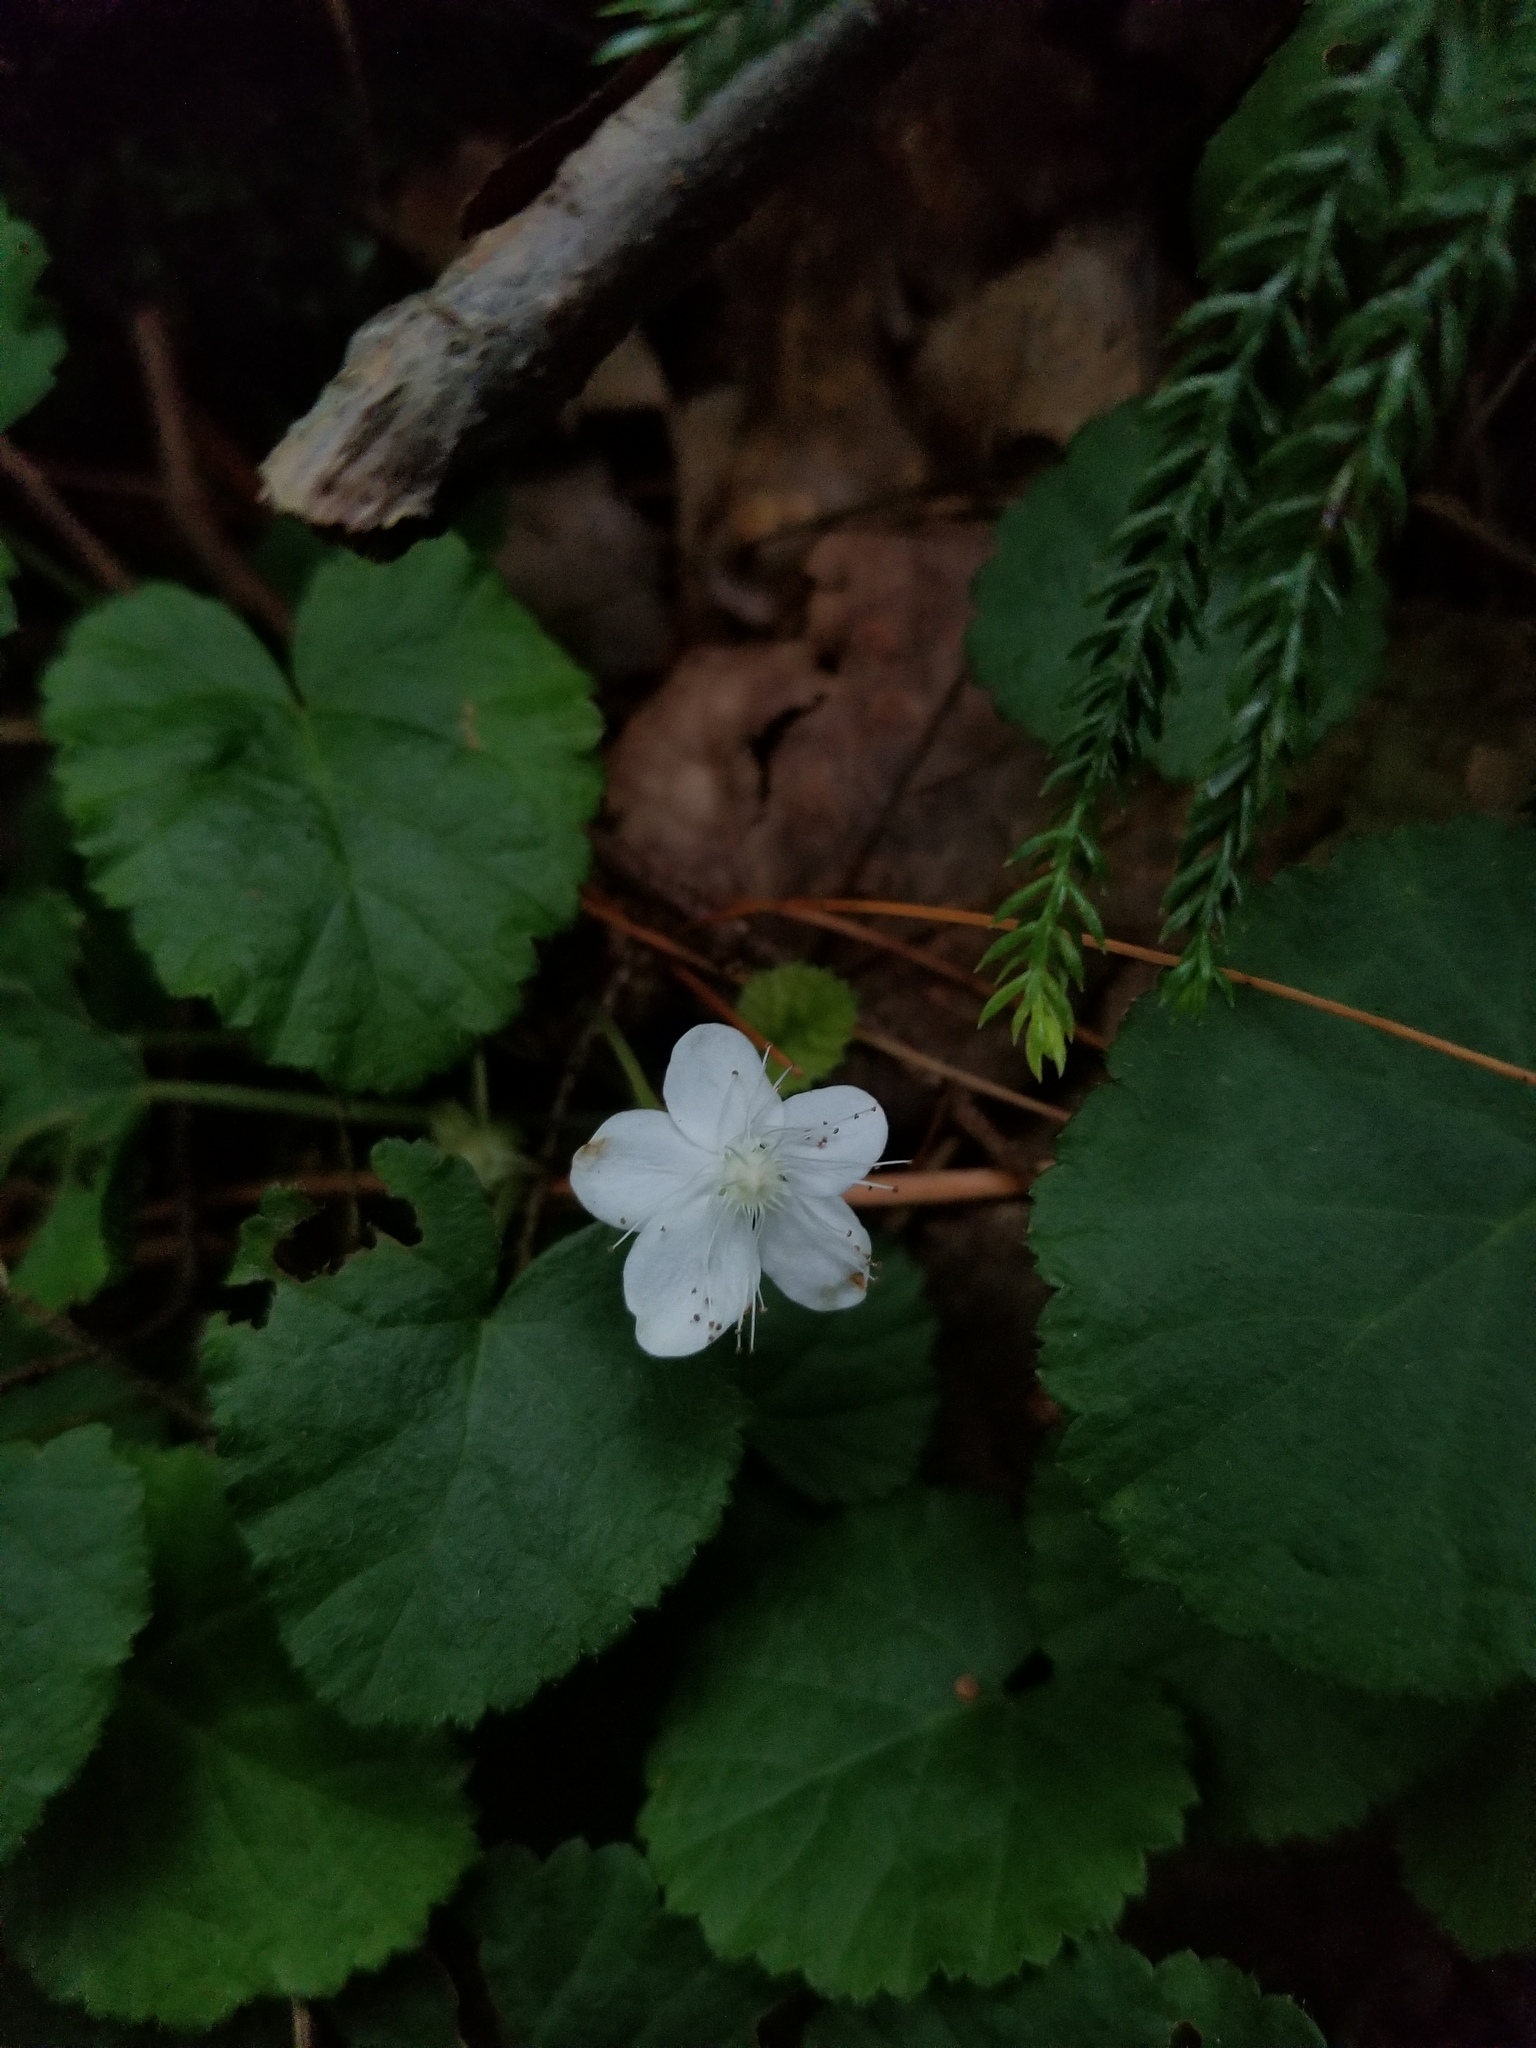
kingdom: Plantae
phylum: Tracheophyta
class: Magnoliopsida
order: Rosales
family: Rosaceae
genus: Dalibarda
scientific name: Dalibarda repens
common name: Dewdrop
